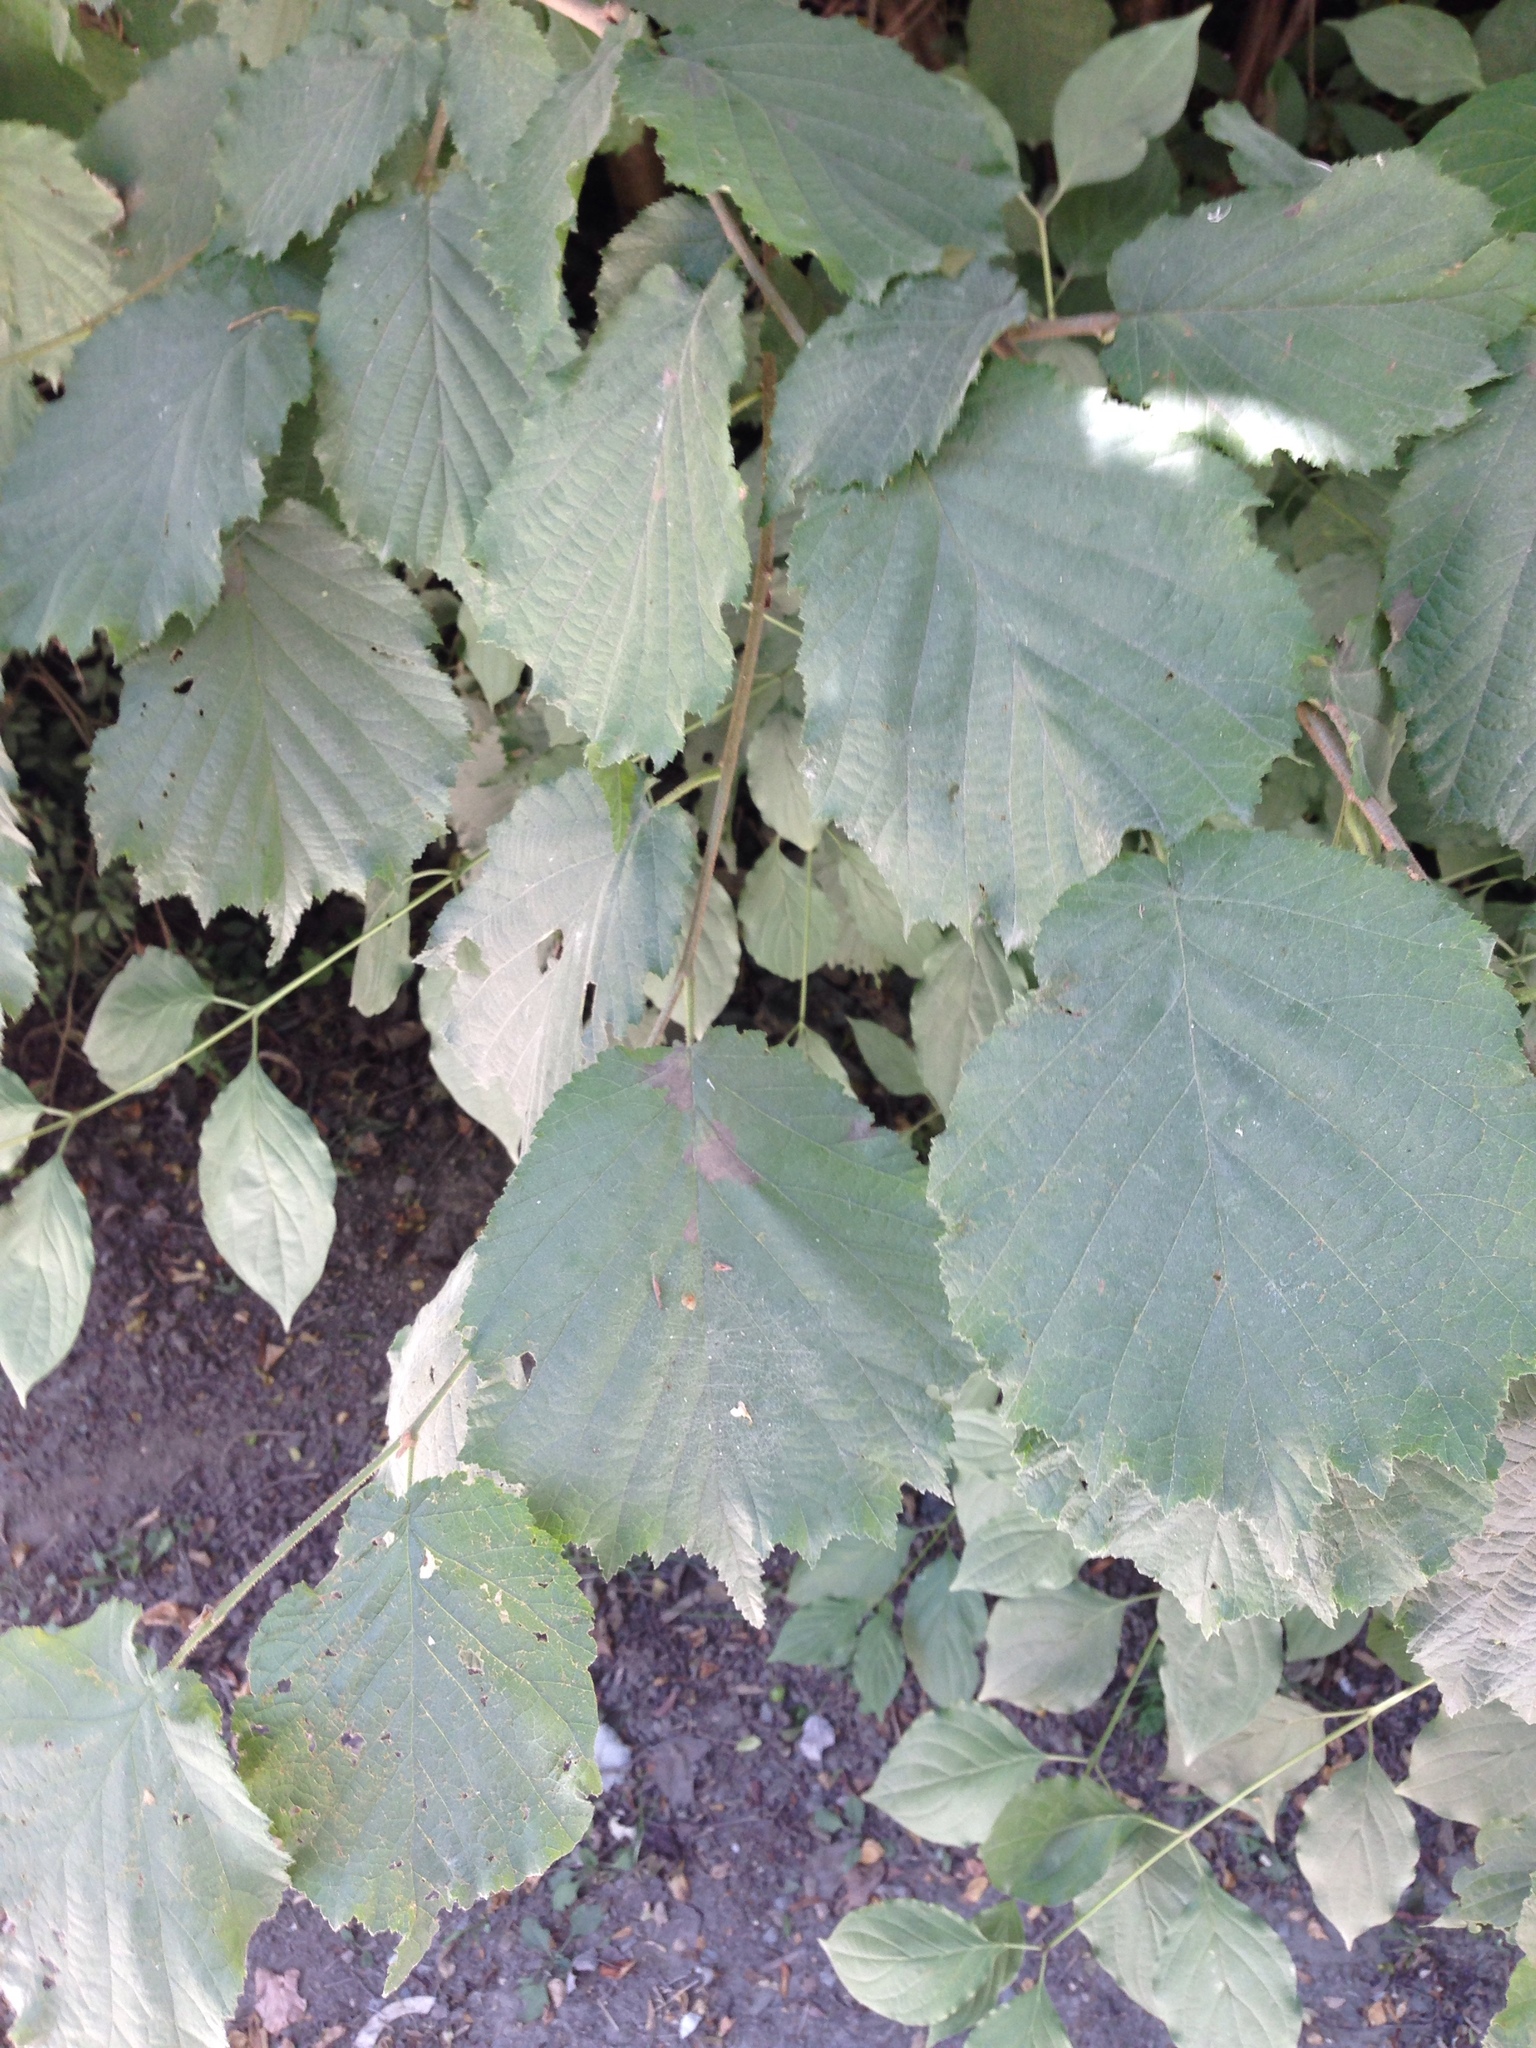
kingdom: Plantae
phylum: Tracheophyta
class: Magnoliopsida
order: Fagales
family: Betulaceae
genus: Corylus
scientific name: Corylus avellana
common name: European hazel
